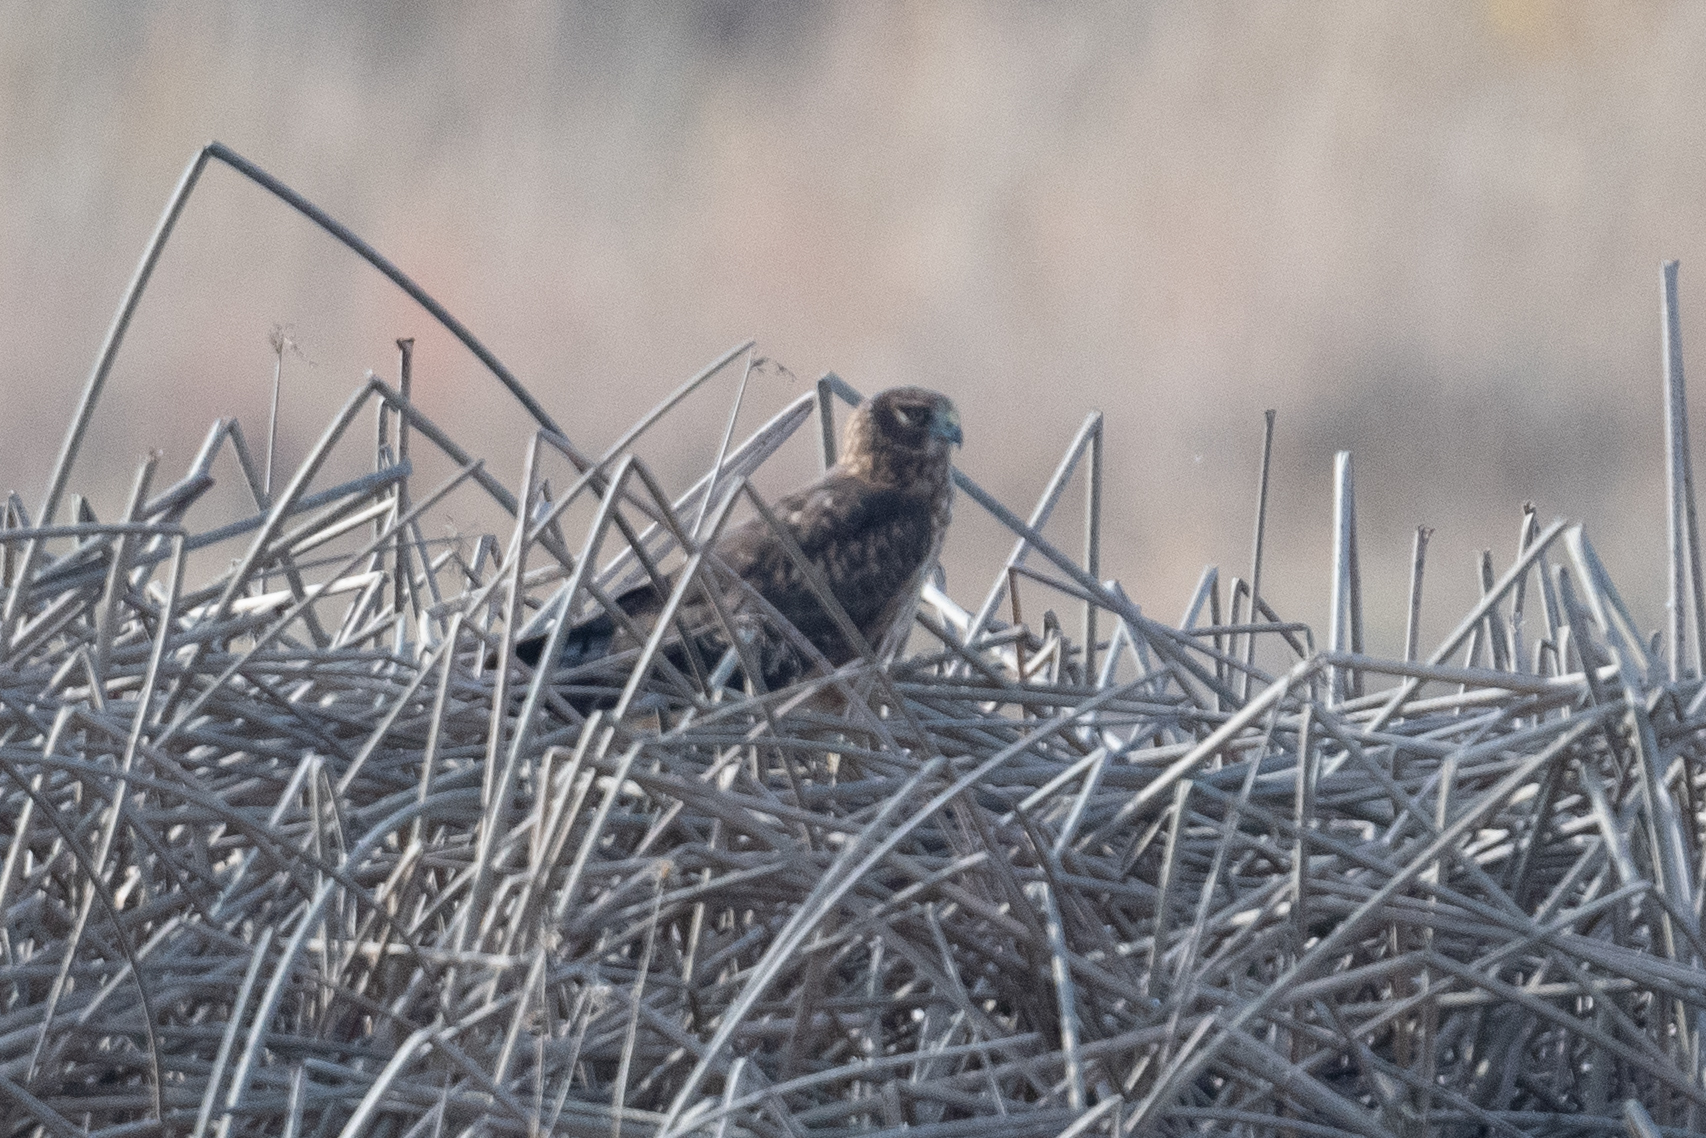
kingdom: Animalia
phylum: Chordata
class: Aves
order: Accipitriformes
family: Accipitridae
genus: Circus
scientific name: Circus cyaneus
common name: Hen harrier
